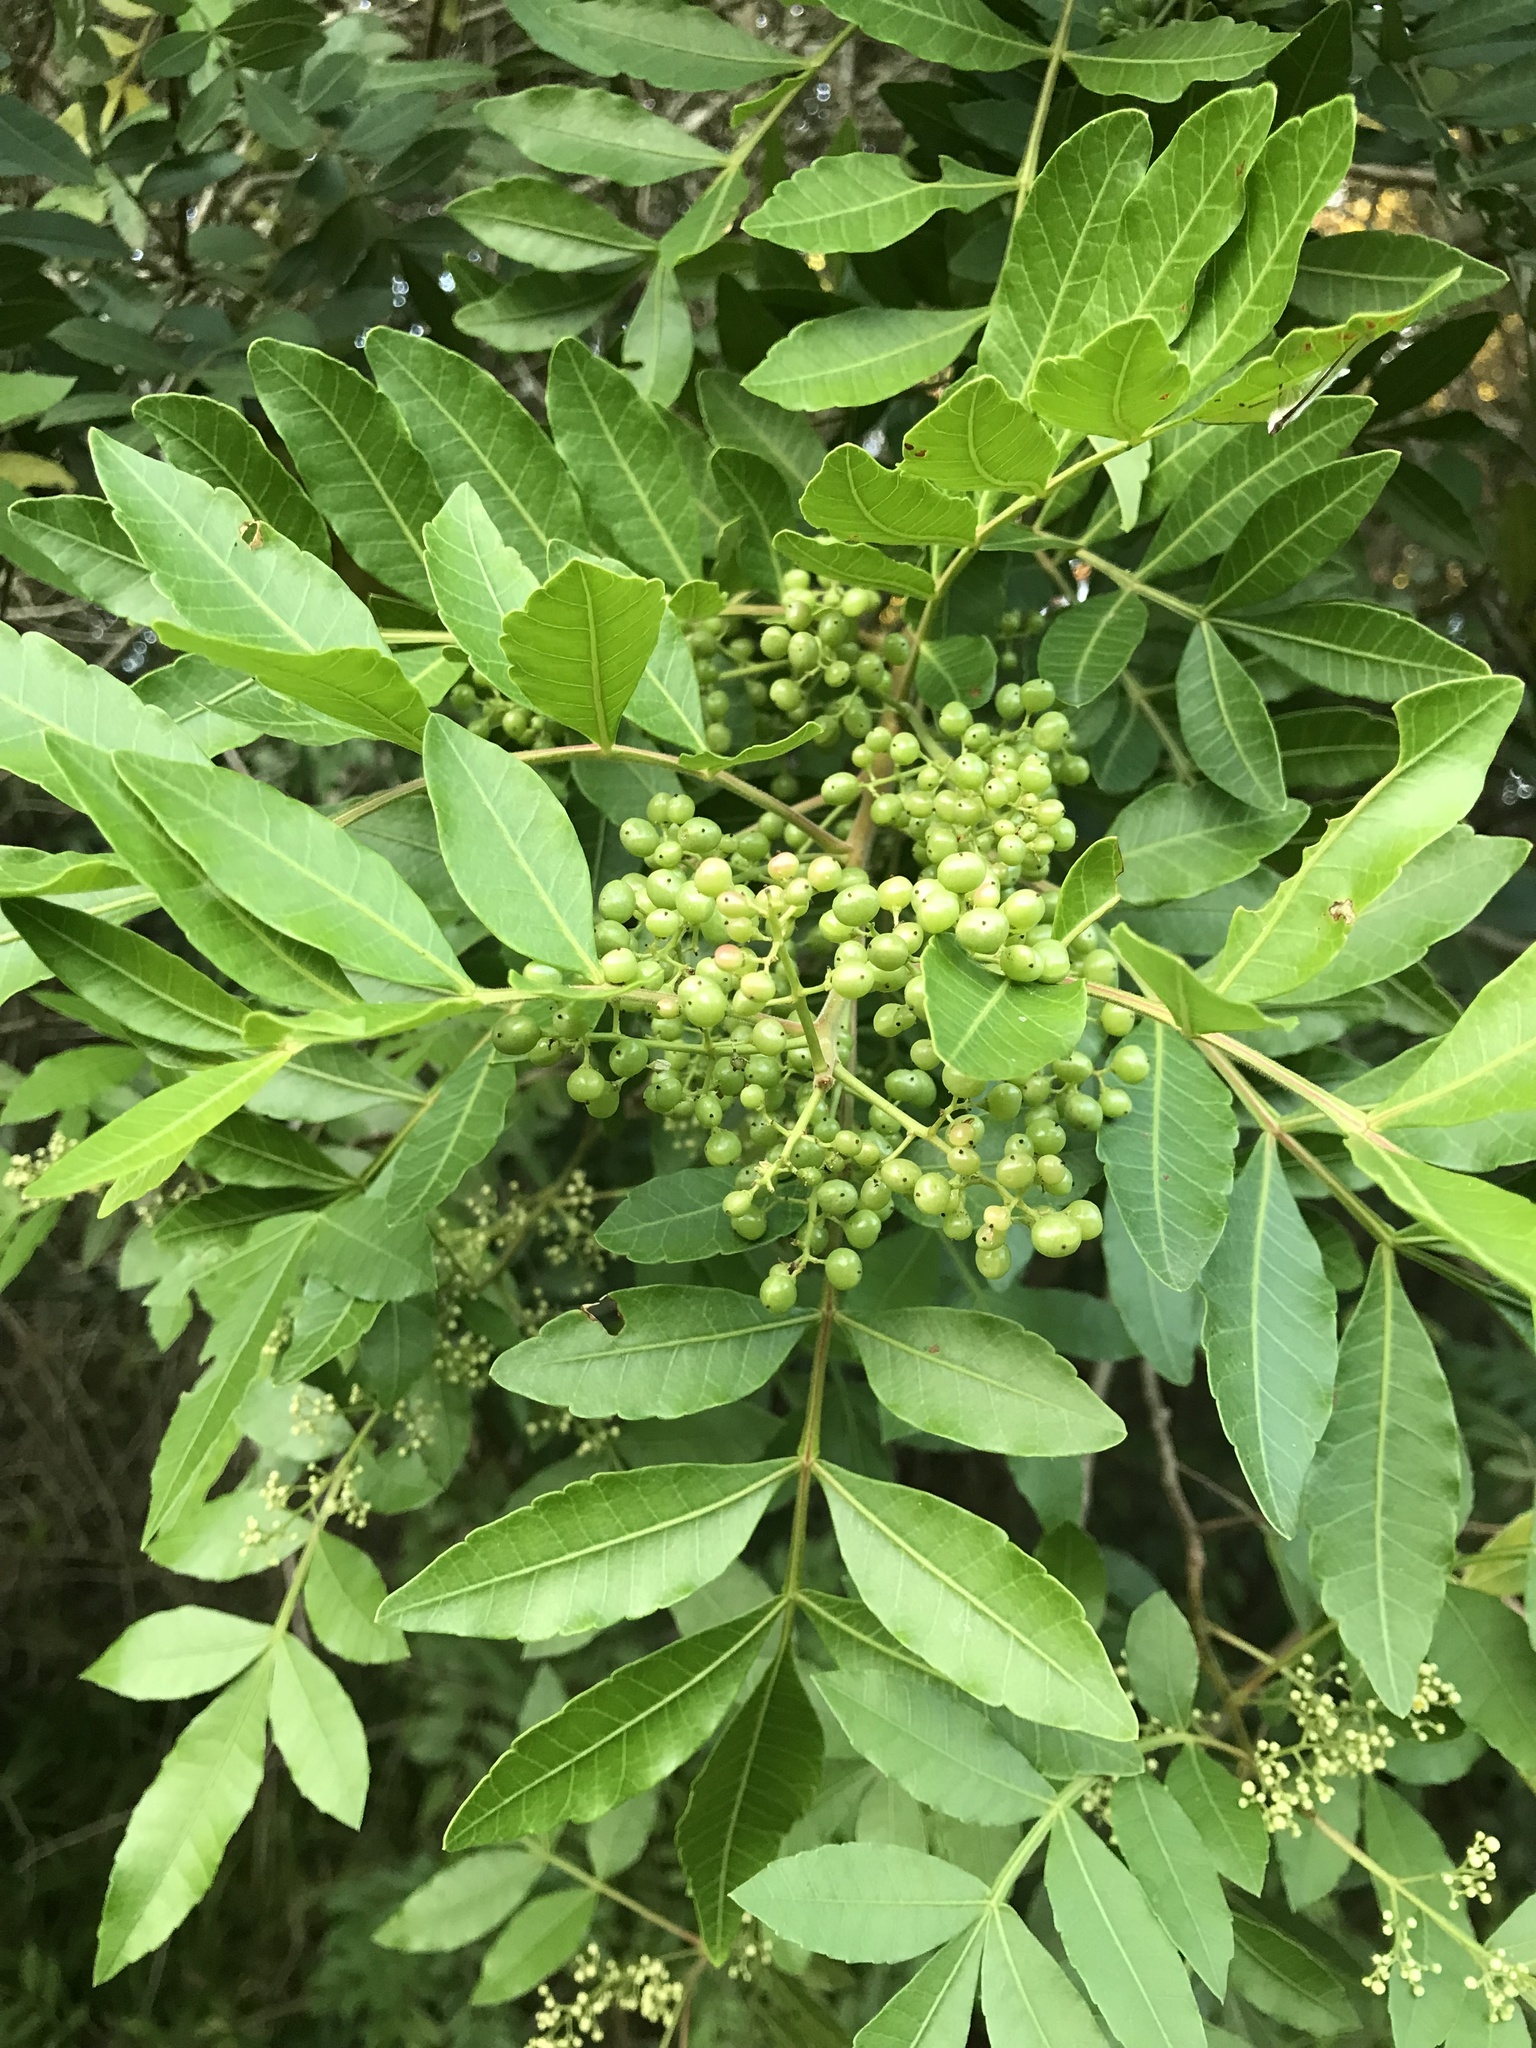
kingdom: Plantae
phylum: Tracheophyta
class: Magnoliopsida
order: Sapindales
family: Anacardiaceae
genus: Schinus
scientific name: Schinus terebinthifolia
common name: Brazilian peppertree
